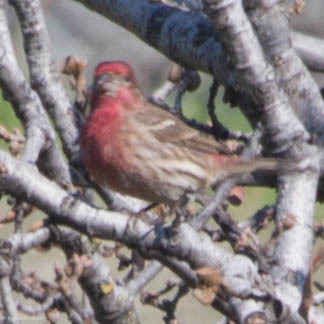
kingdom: Animalia
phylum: Chordata
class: Aves
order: Passeriformes
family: Fringillidae
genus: Haemorhous
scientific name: Haemorhous mexicanus
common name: House finch
